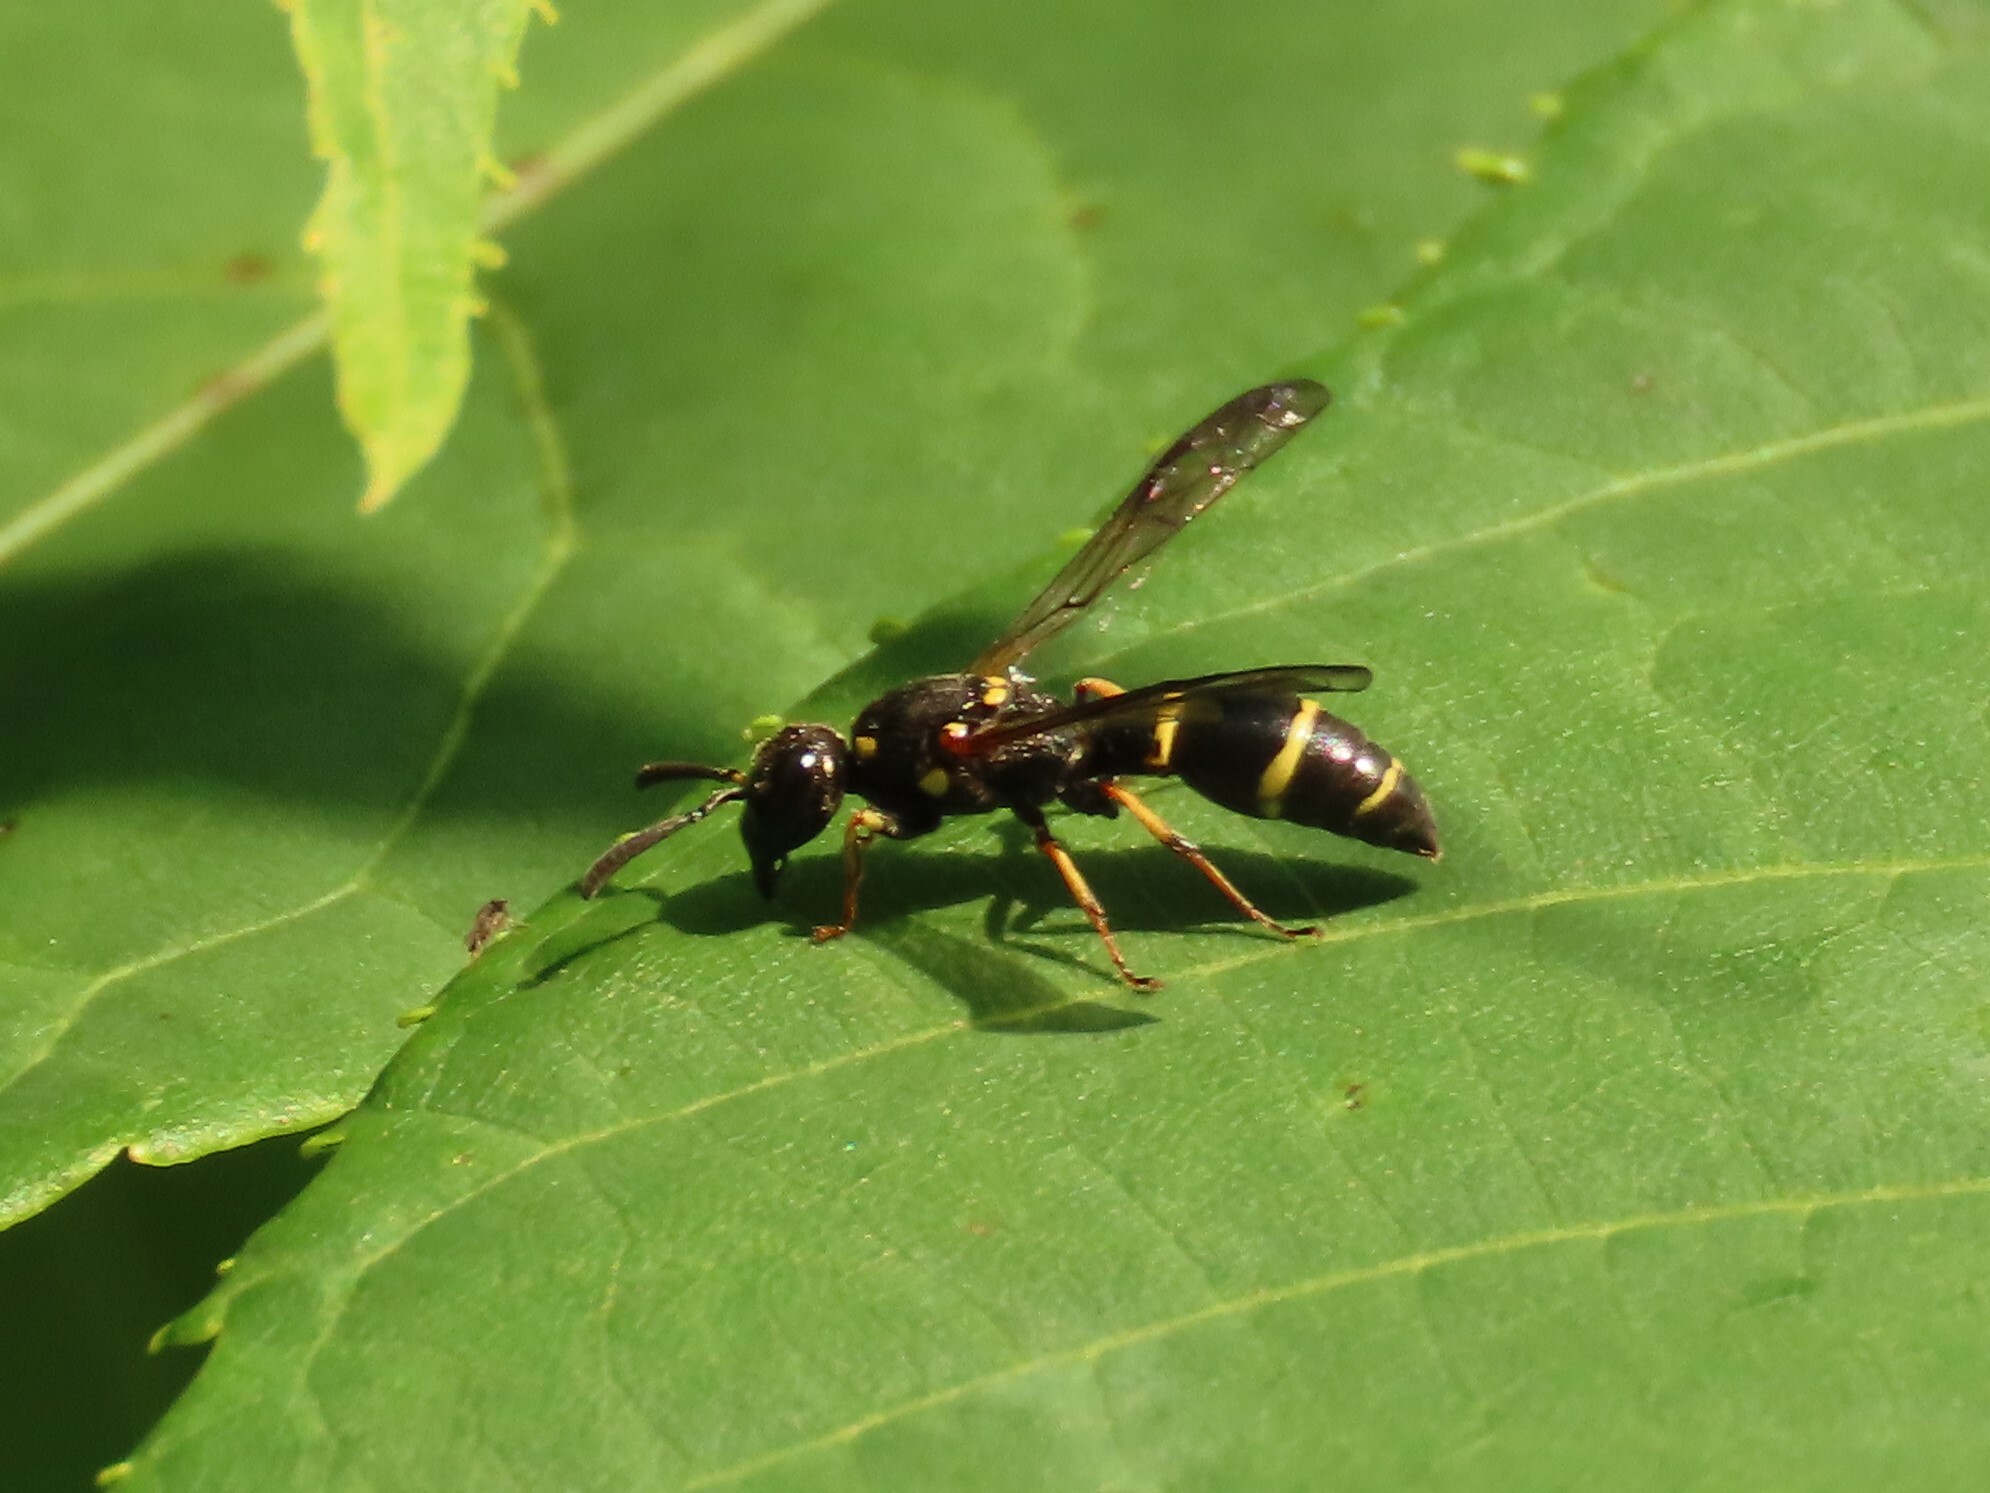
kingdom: Animalia
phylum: Arthropoda
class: Insecta
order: Hymenoptera
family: Eumenidae
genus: Symmorphus
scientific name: Symmorphus
